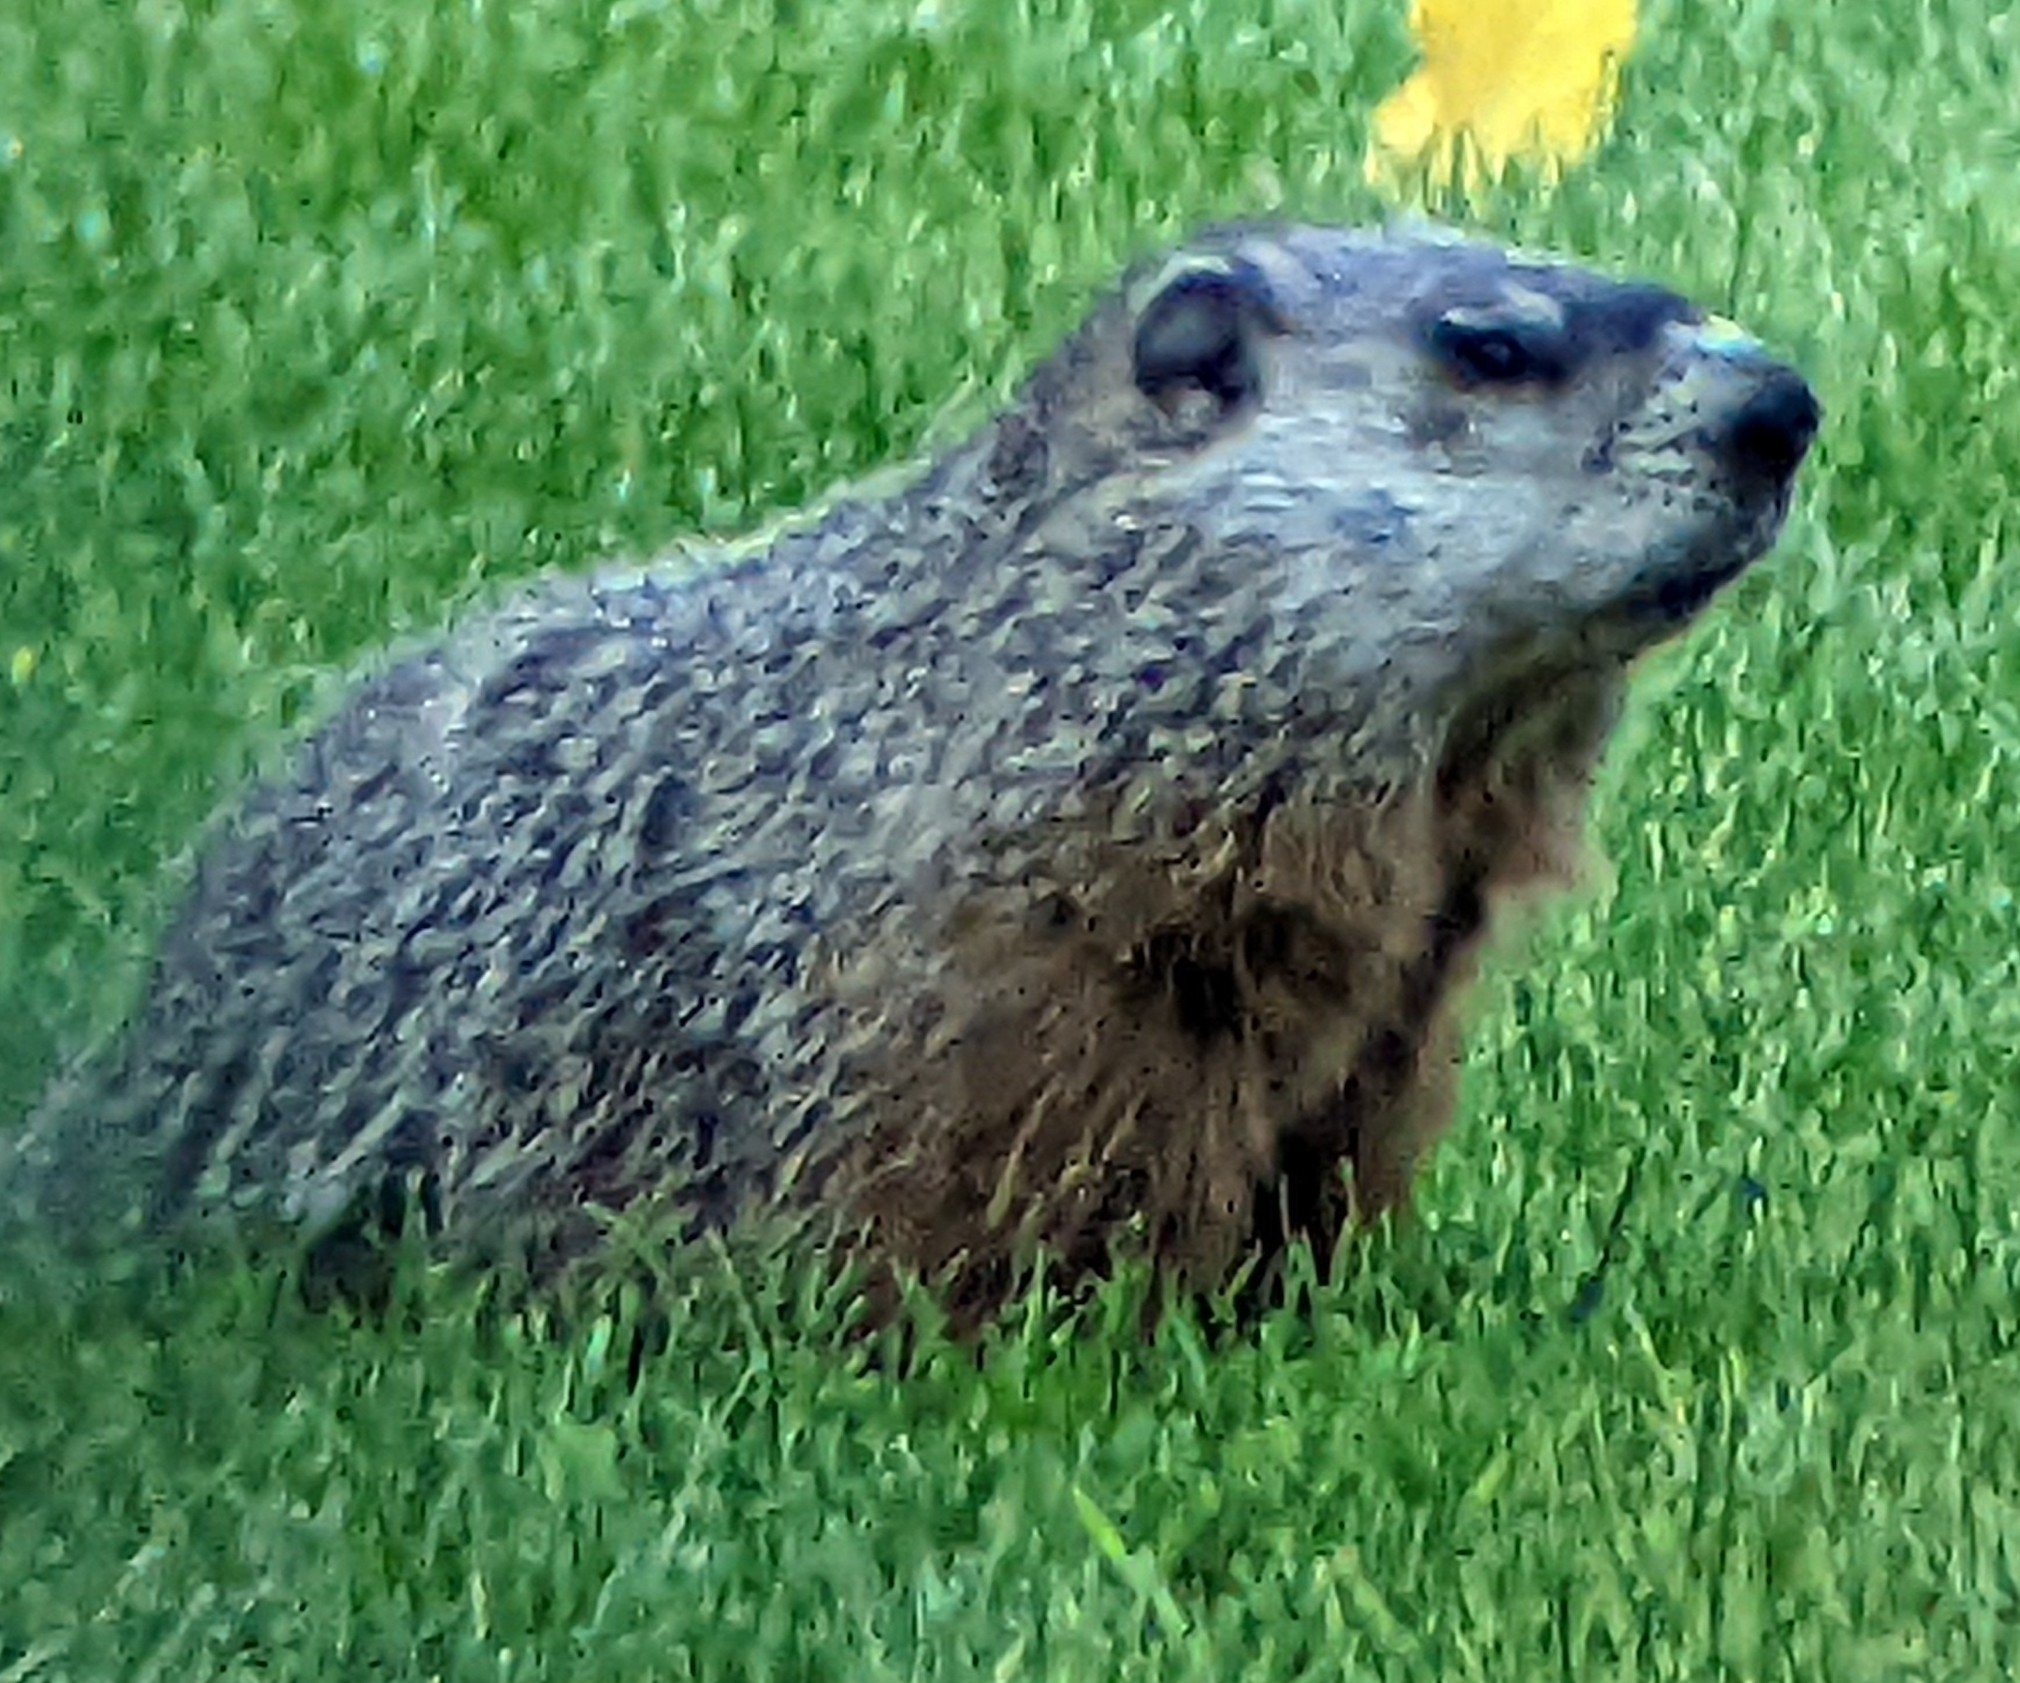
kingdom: Animalia
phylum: Chordata
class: Mammalia
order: Rodentia
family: Sciuridae
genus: Marmota
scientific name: Marmota monax
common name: Groundhog
